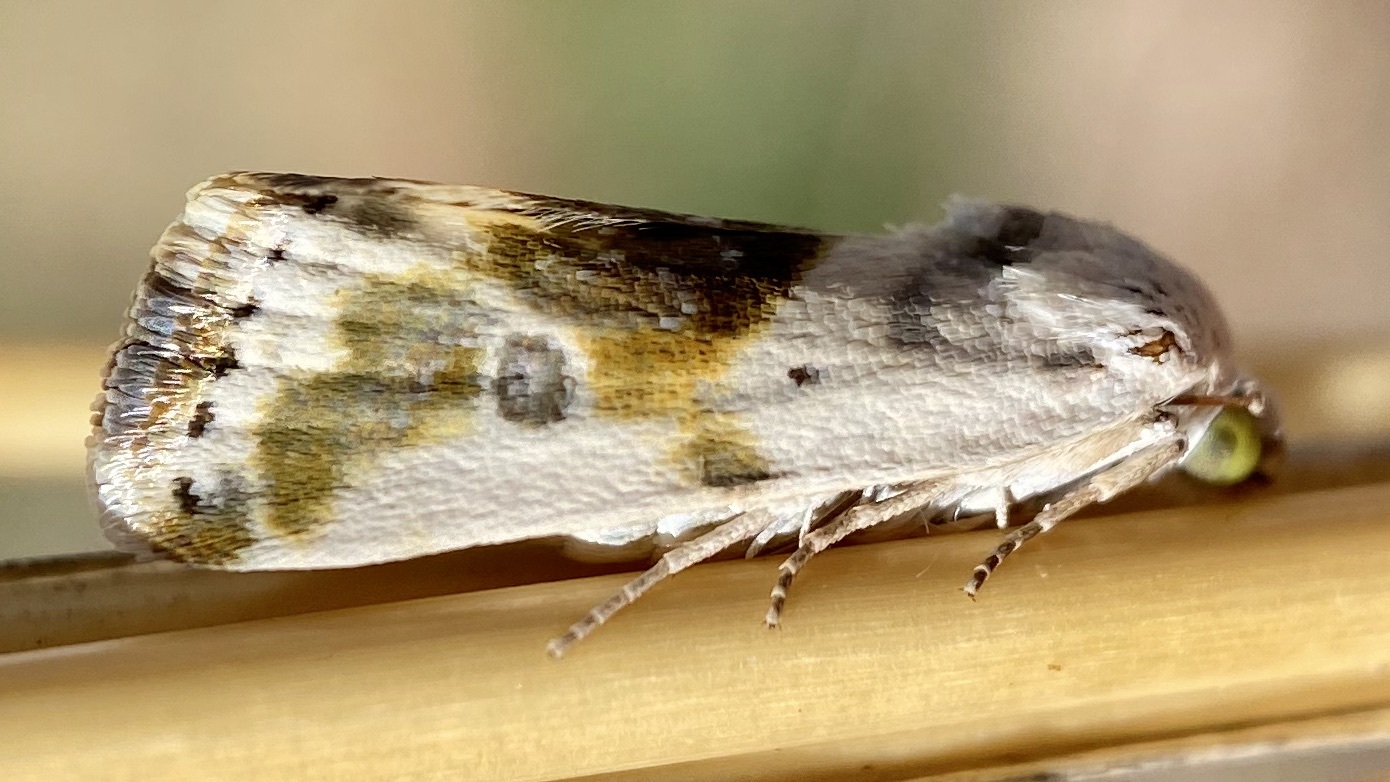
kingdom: Animalia
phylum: Arthropoda
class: Insecta
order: Lepidoptera
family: Noctuidae
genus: Acontia
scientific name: Acontia candefacta
